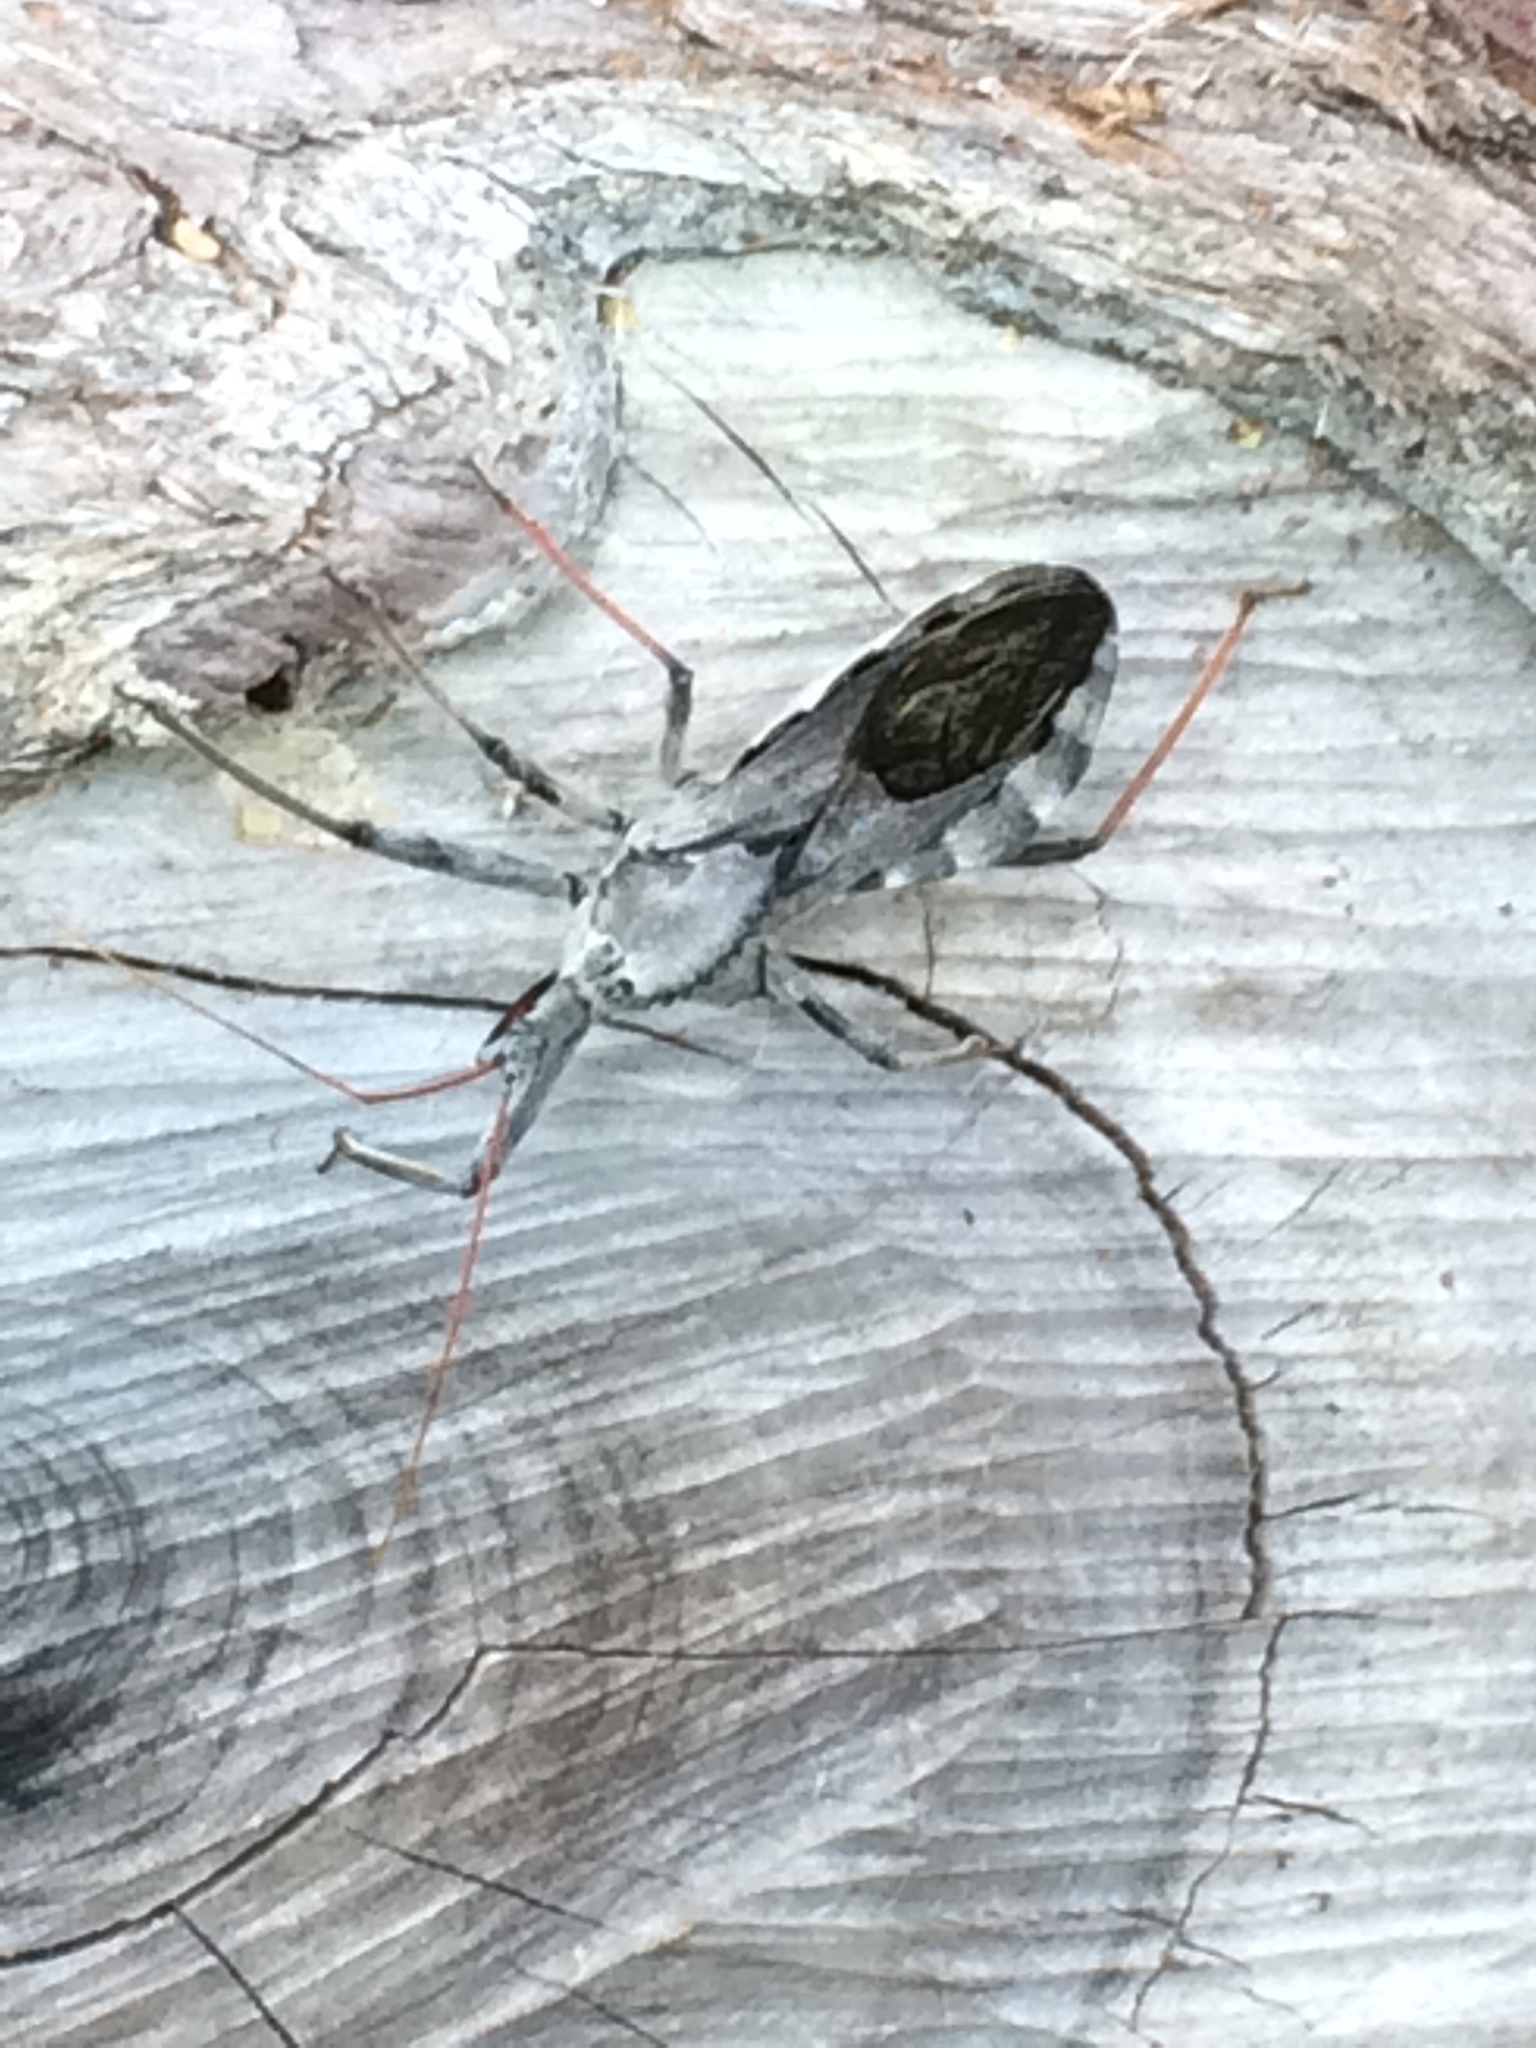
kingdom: Animalia
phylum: Arthropoda
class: Insecta
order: Hemiptera
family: Reduviidae
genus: Arilus
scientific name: Arilus cristatus
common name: North american wheel bug
